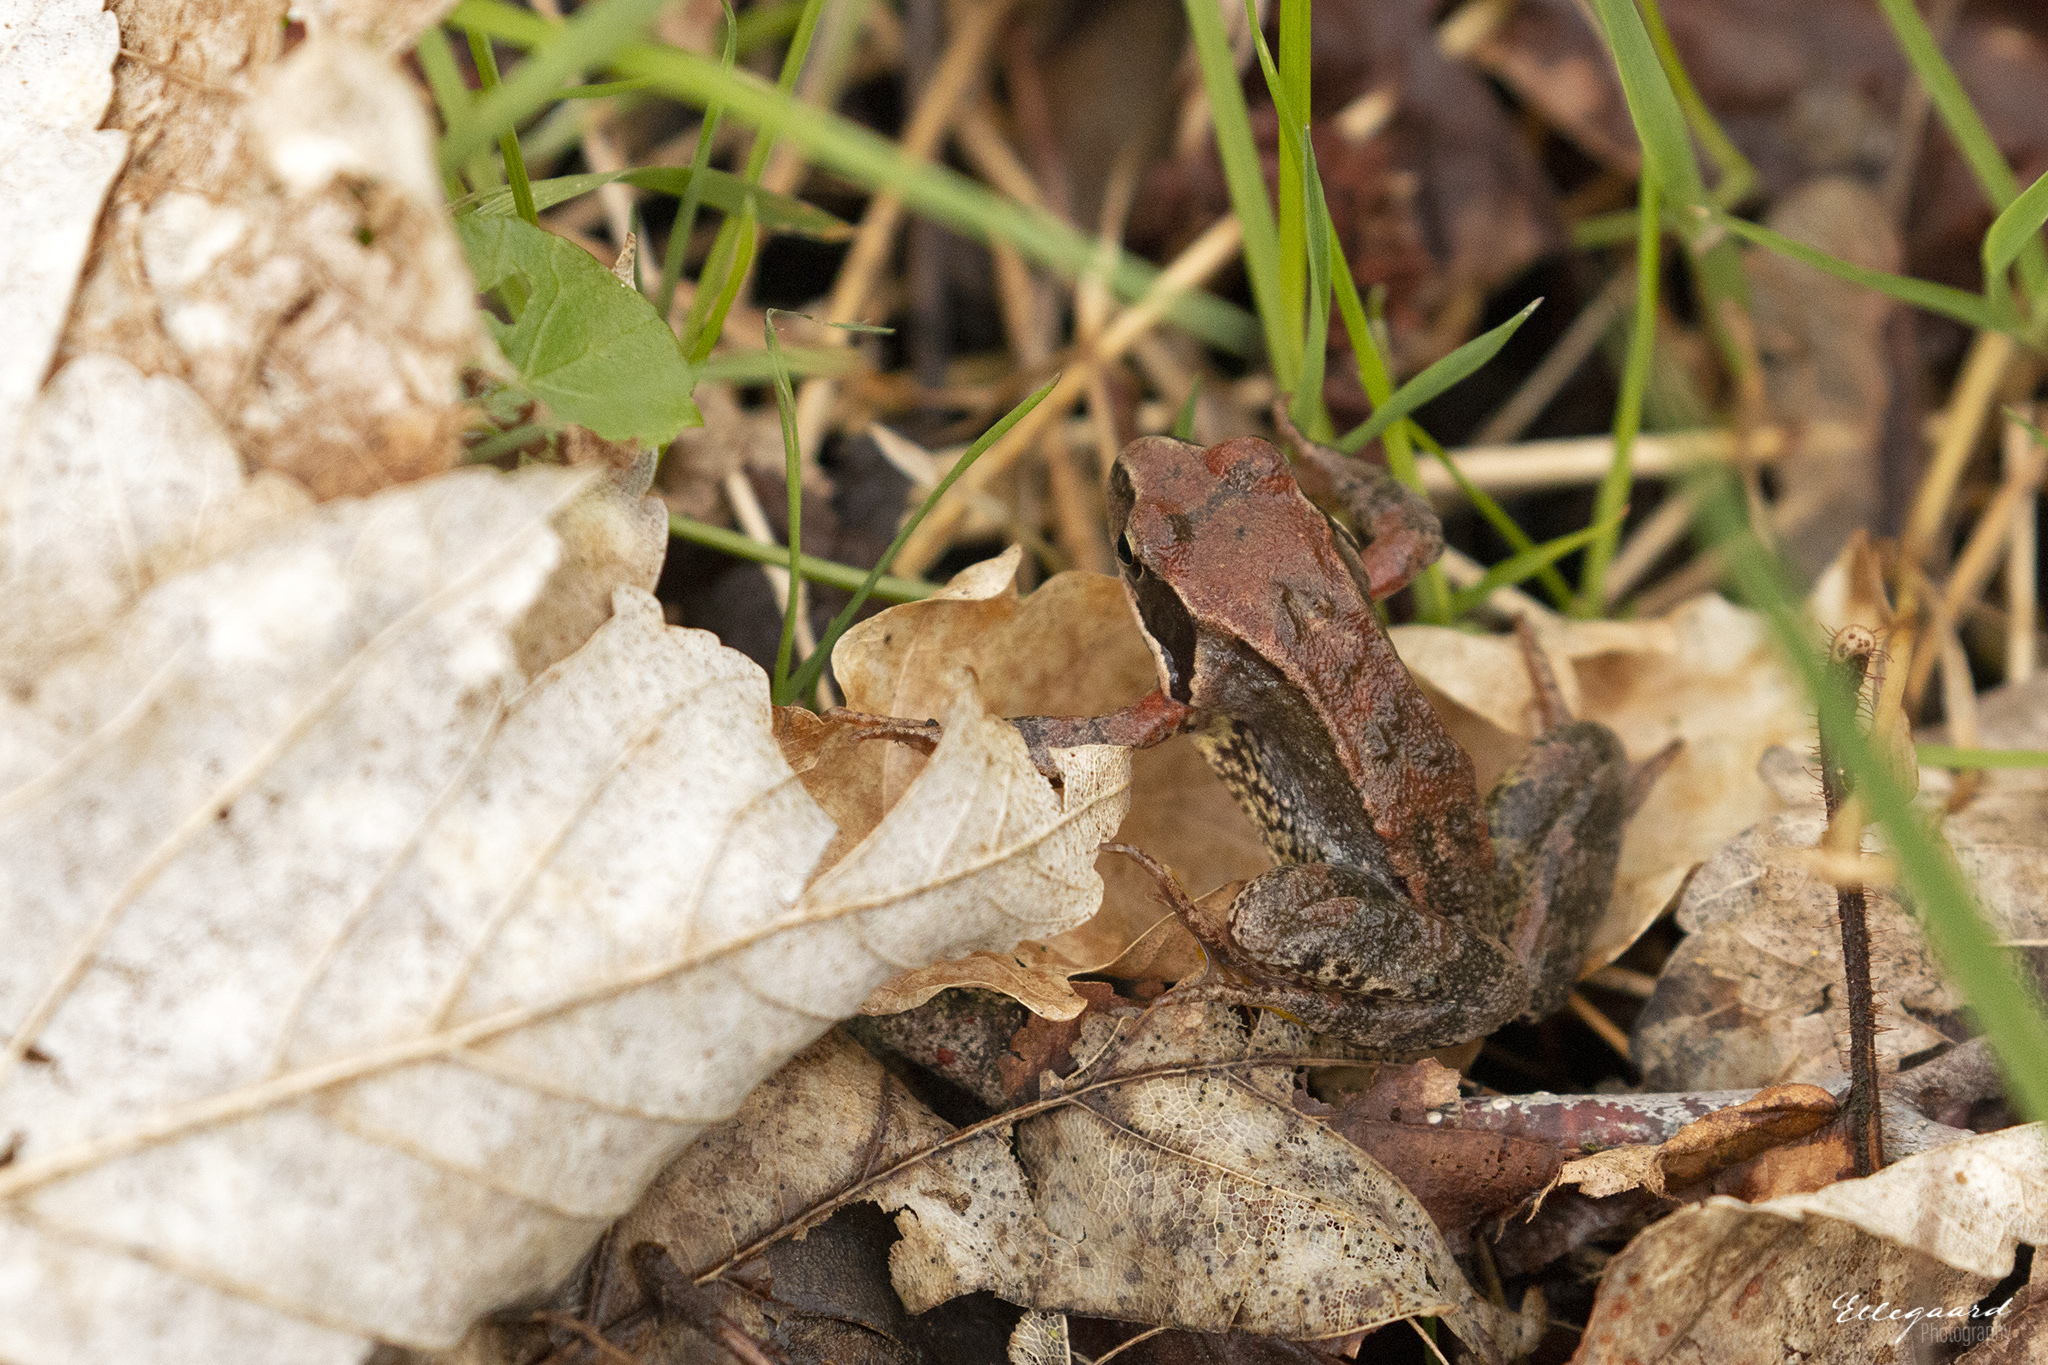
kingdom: Animalia
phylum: Chordata
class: Amphibia
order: Anura
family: Ranidae
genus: Rana
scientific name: Rana temporaria
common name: Common frog
